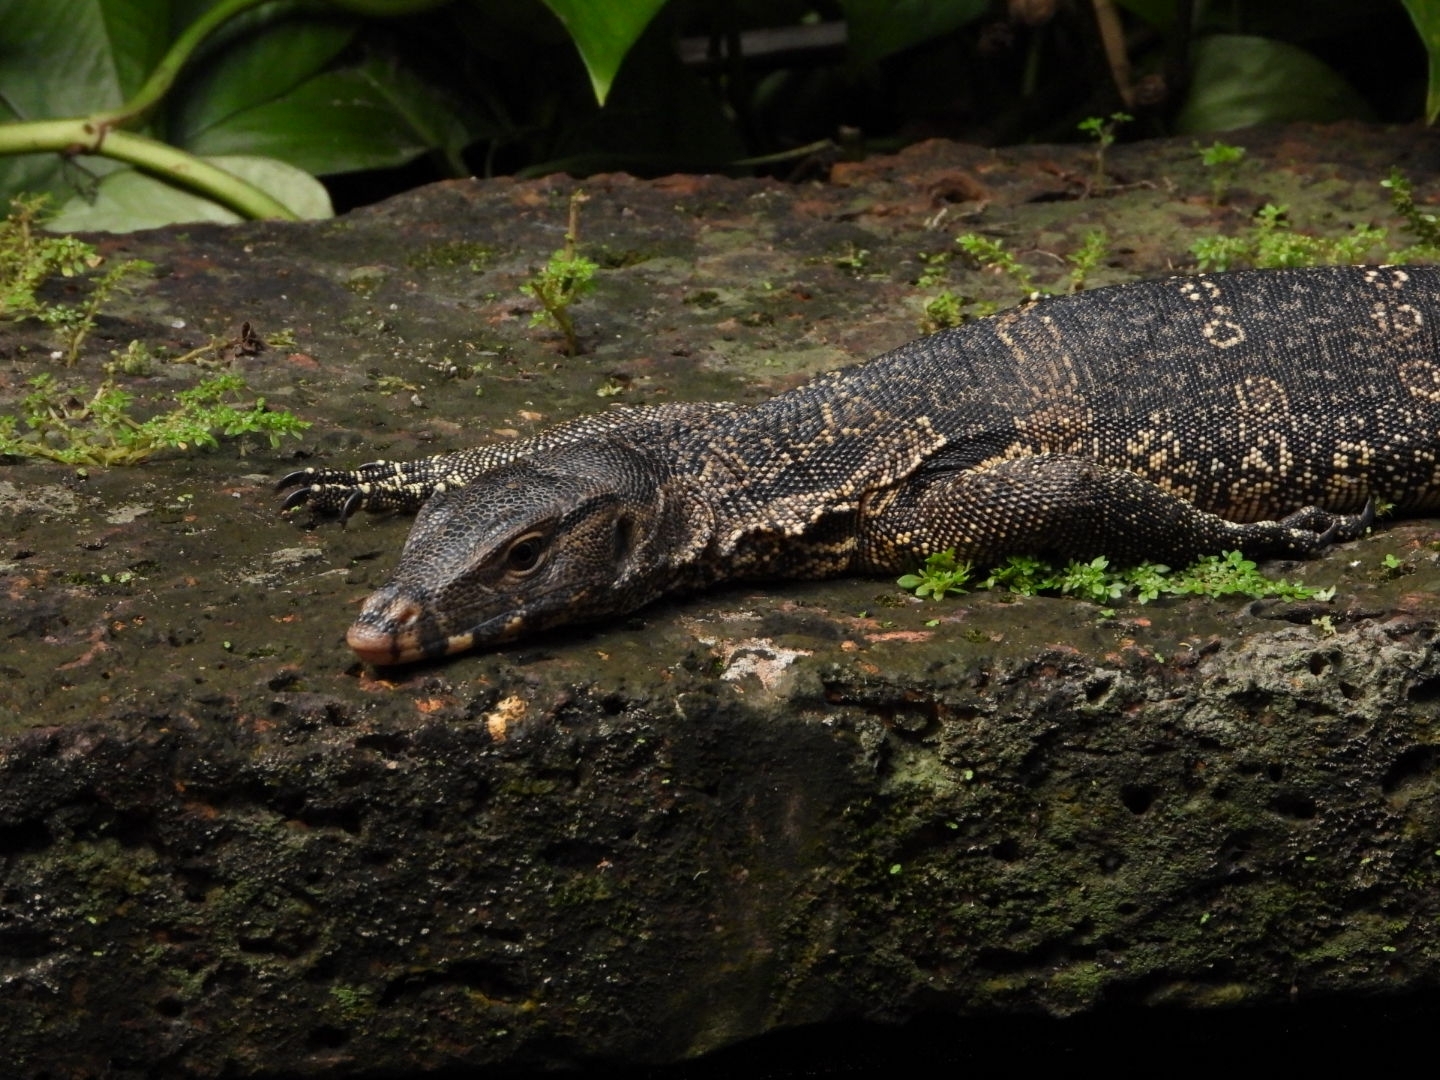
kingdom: Animalia
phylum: Chordata
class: Squamata
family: Varanidae
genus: Varanus
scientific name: Varanus salvator
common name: Common water monitor
